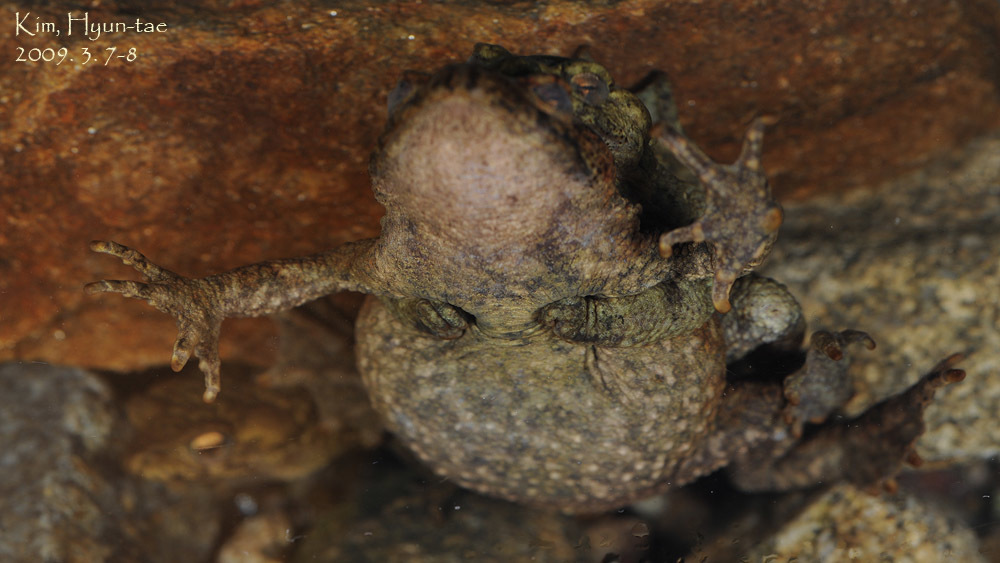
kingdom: Animalia
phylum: Chordata
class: Amphibia
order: Anura
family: Bufonidae
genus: Bufo
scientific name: Bufo stejnegeri
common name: Water toad
